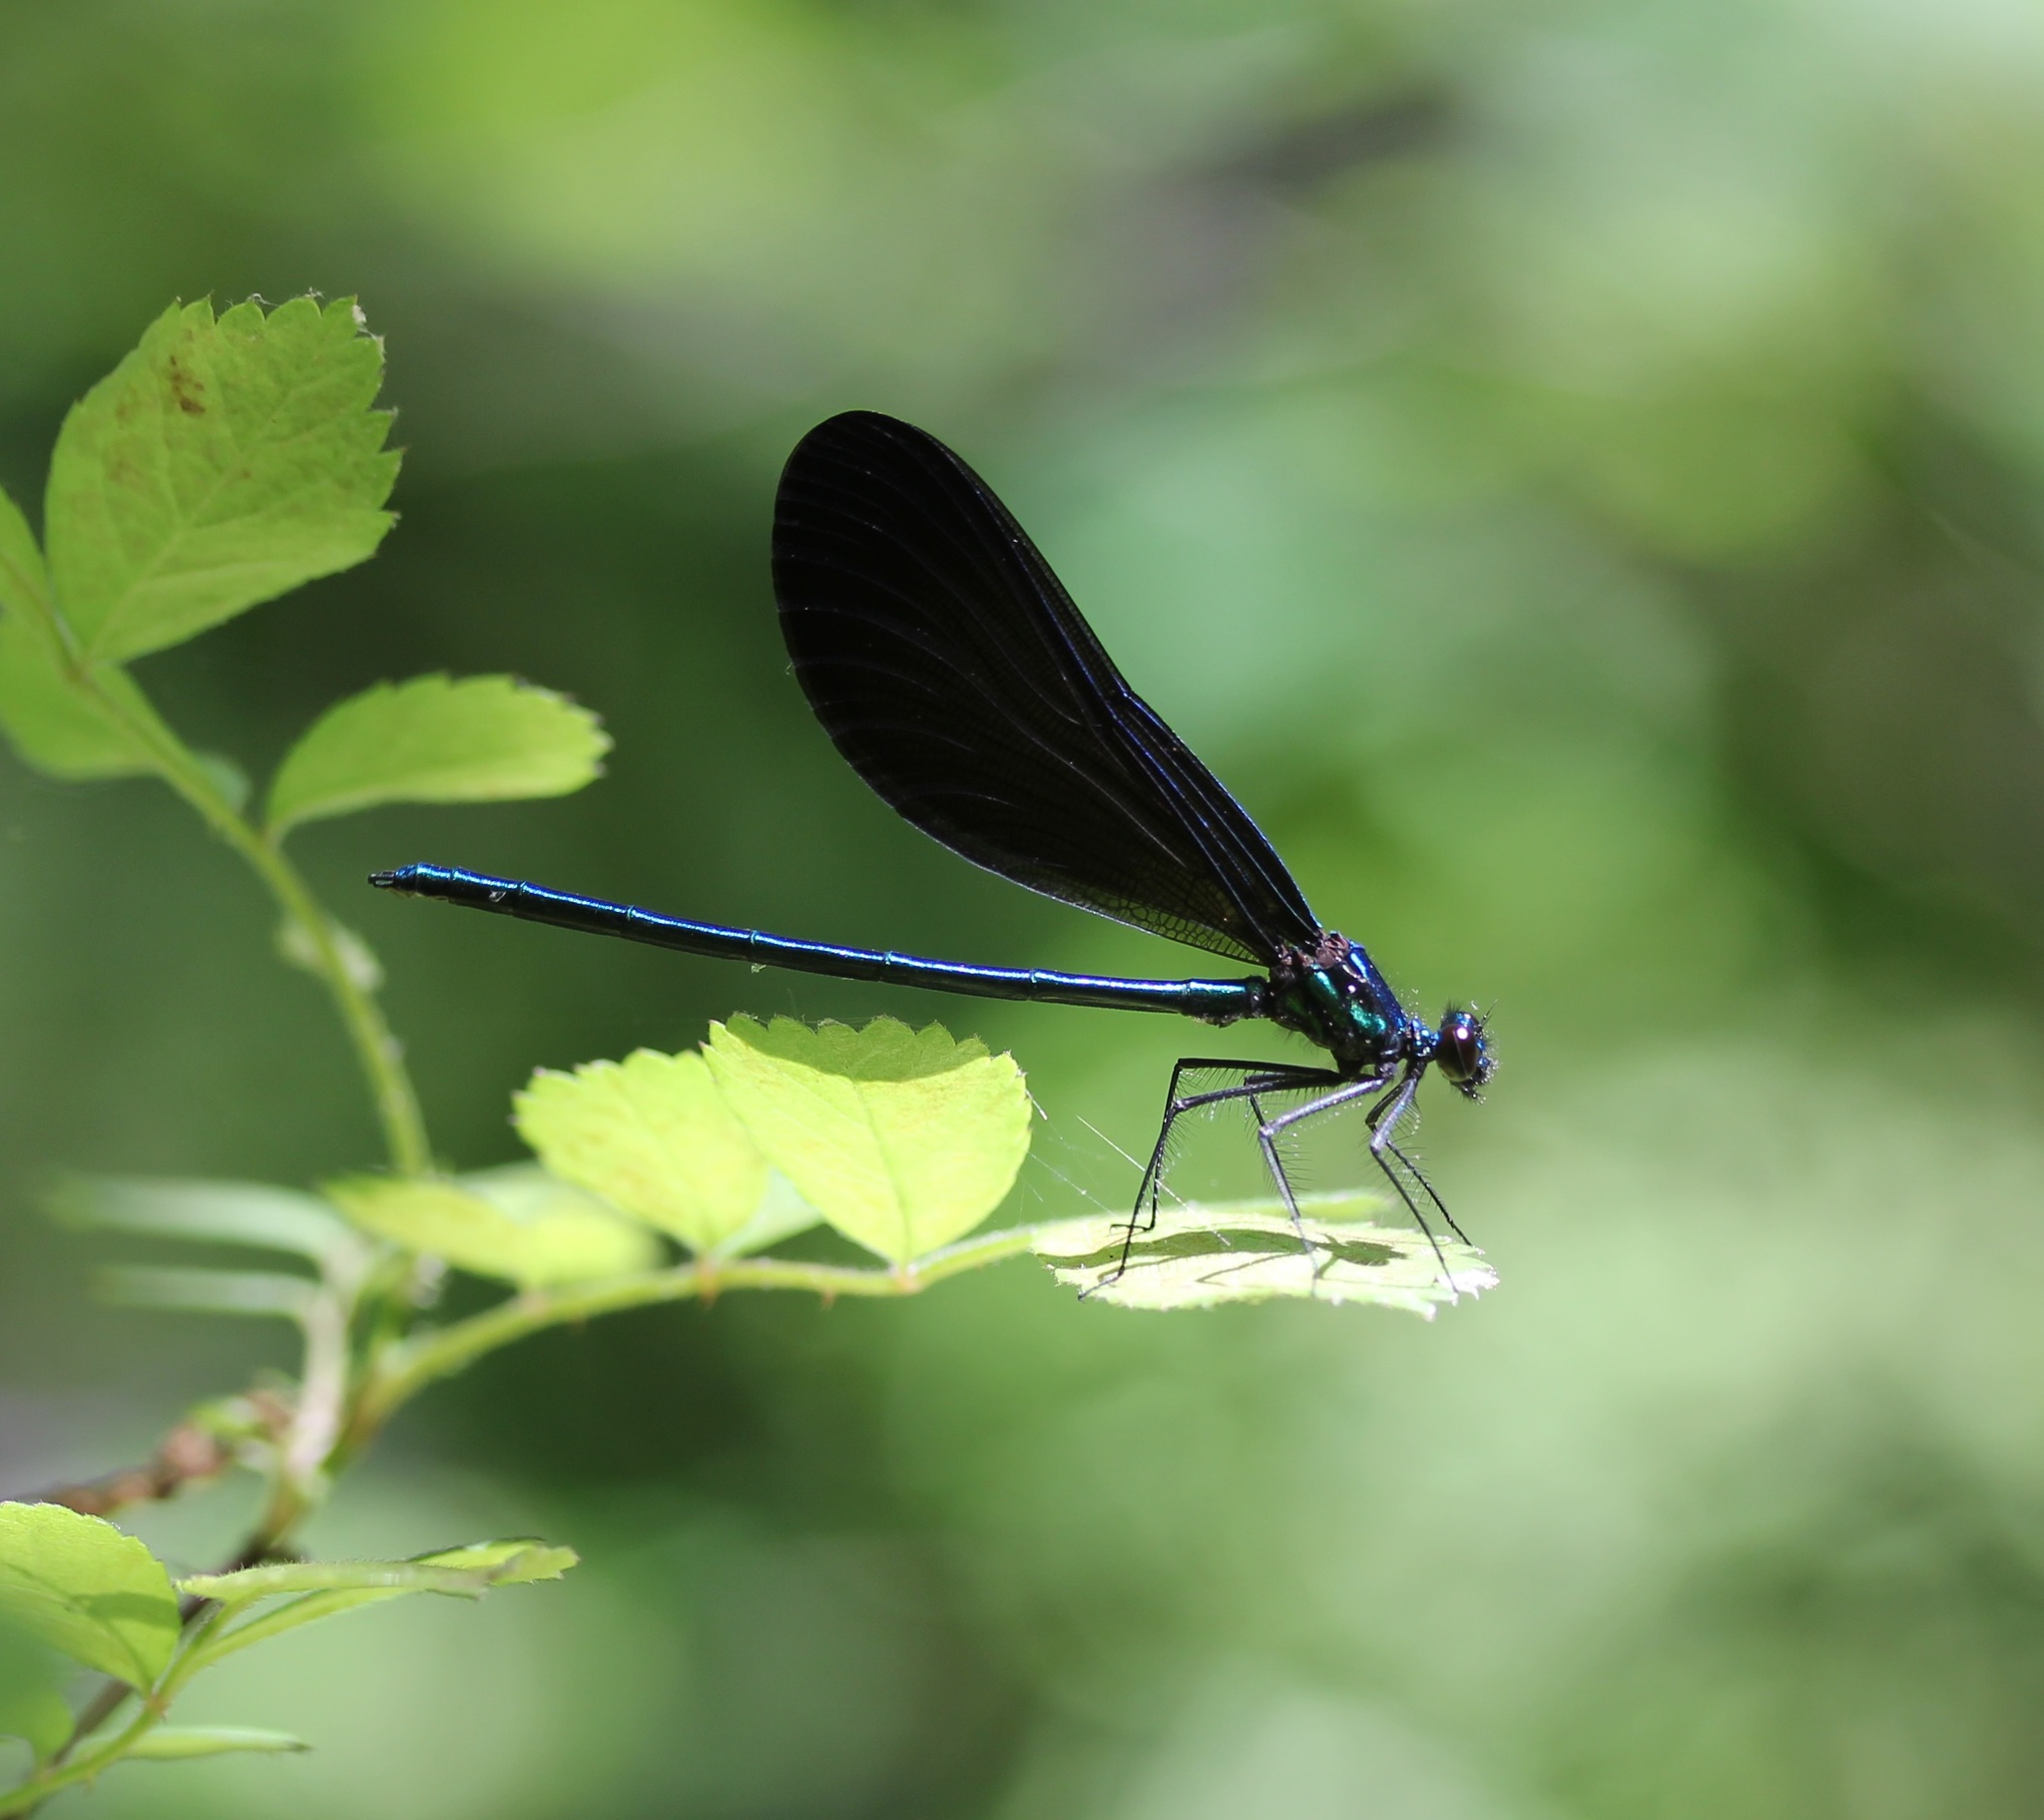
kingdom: Animalia
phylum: Arthropoda
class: Insecta
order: Odonata
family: Calopterygidae
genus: Calopteryx
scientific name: Calopteryx maculata
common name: Ebony jewelwing
